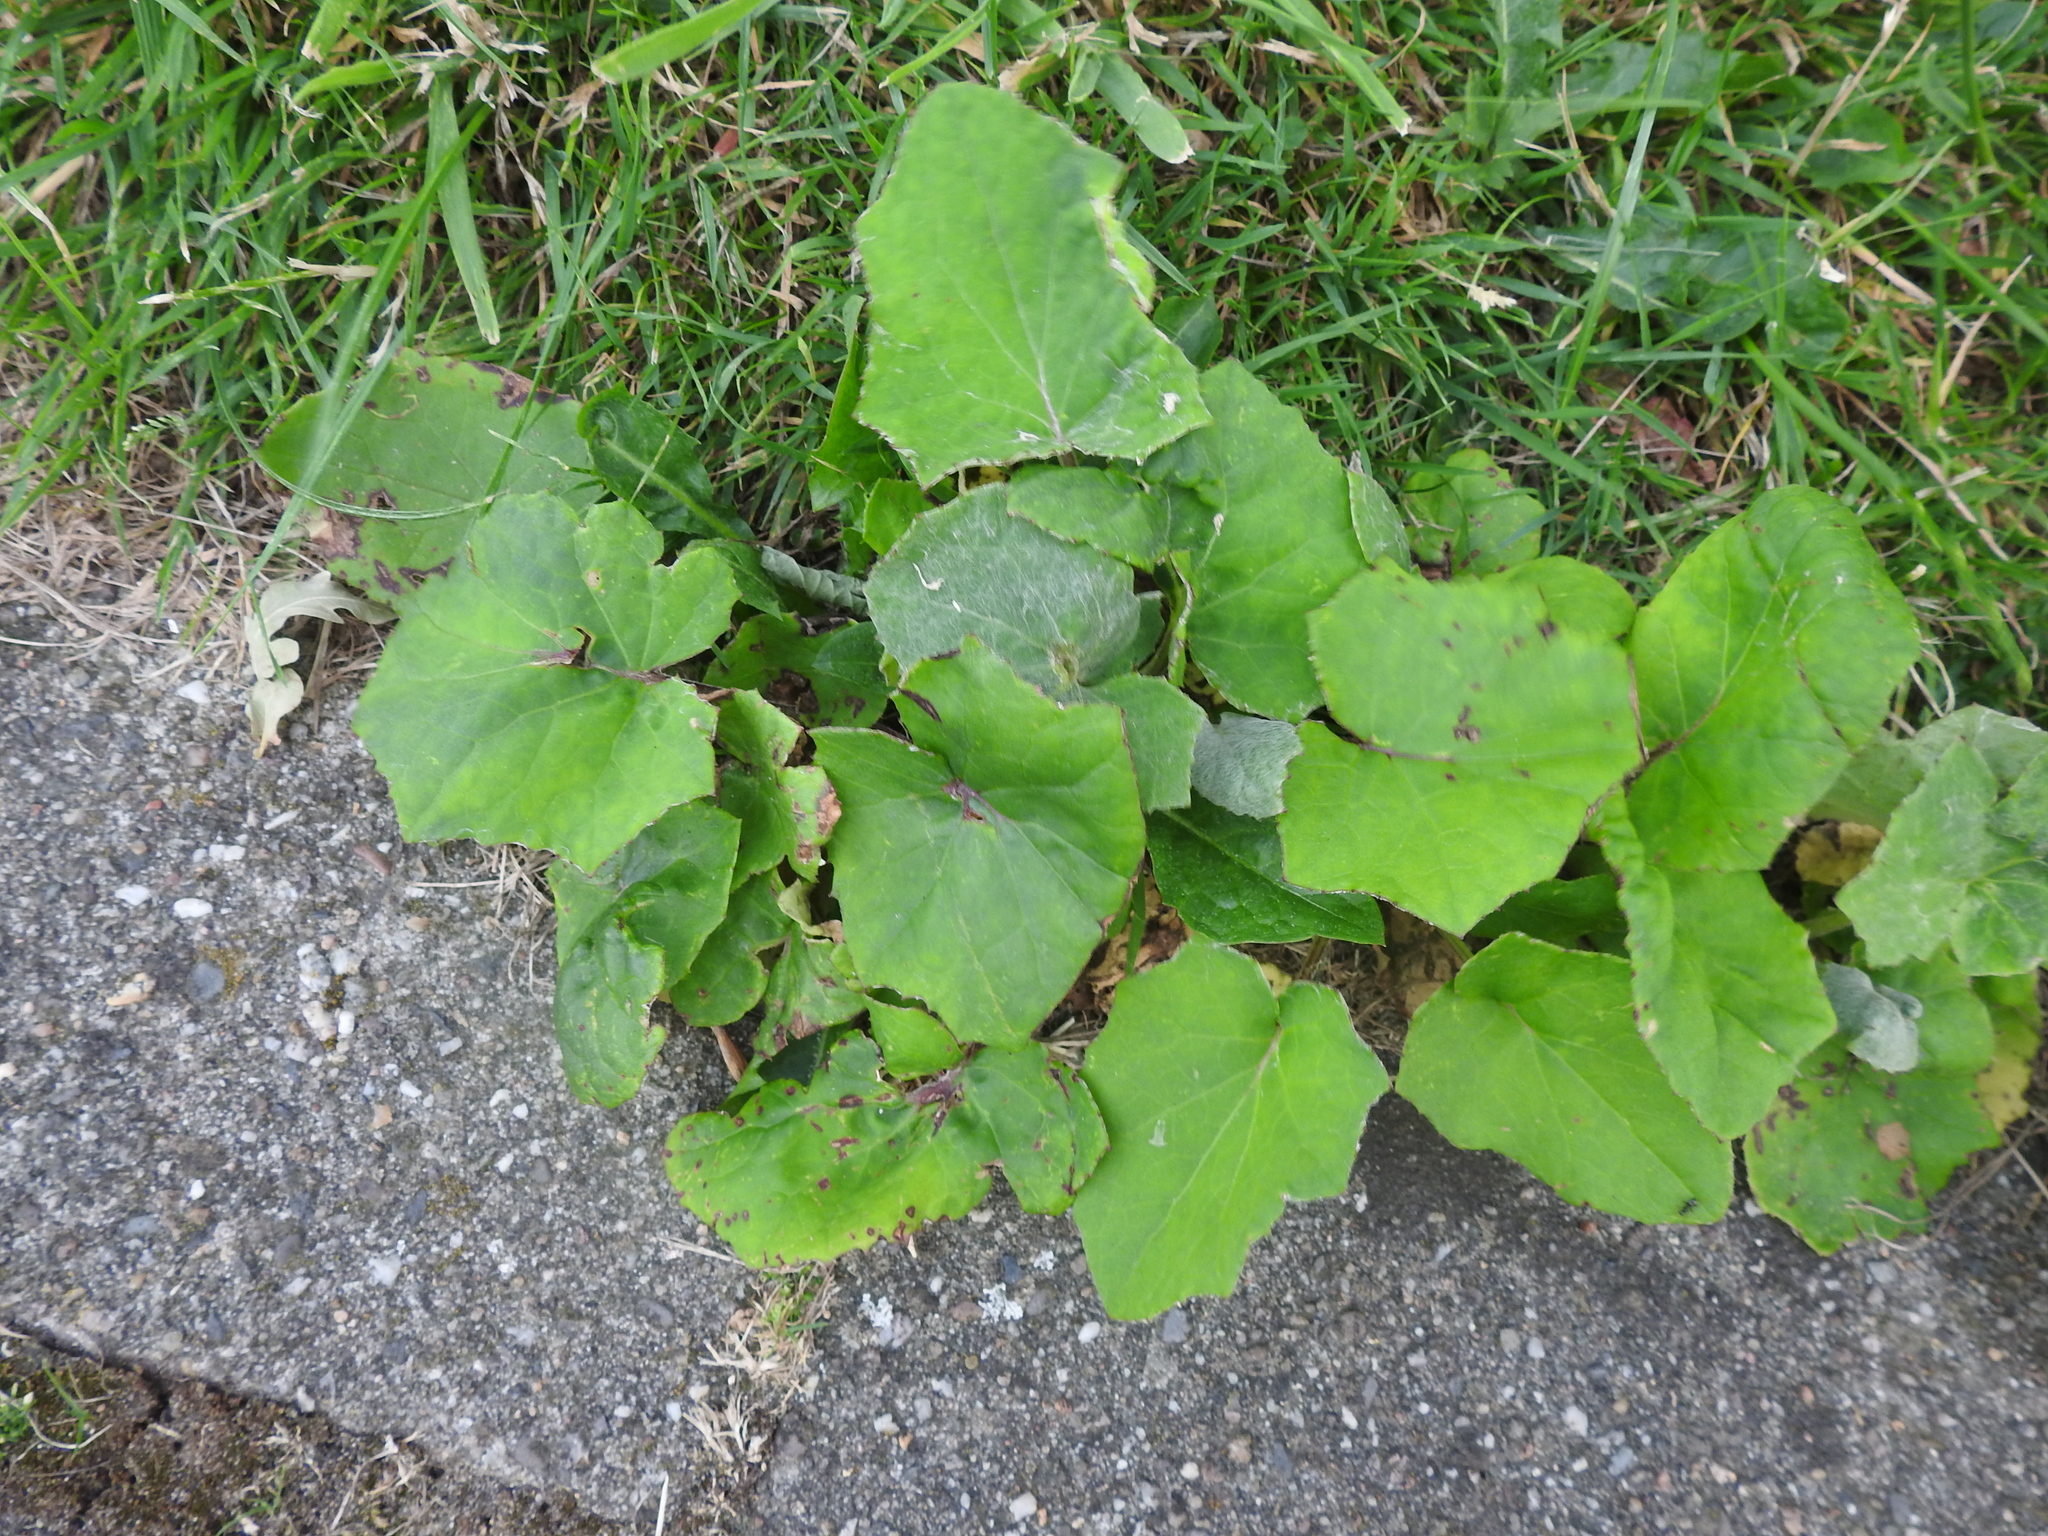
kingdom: Plantae
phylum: Tracheophyta
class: Magnoliopsida
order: Asterales
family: Asteraceae
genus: Tussilago
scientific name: Tussilago farfara
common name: Coltsfoot
